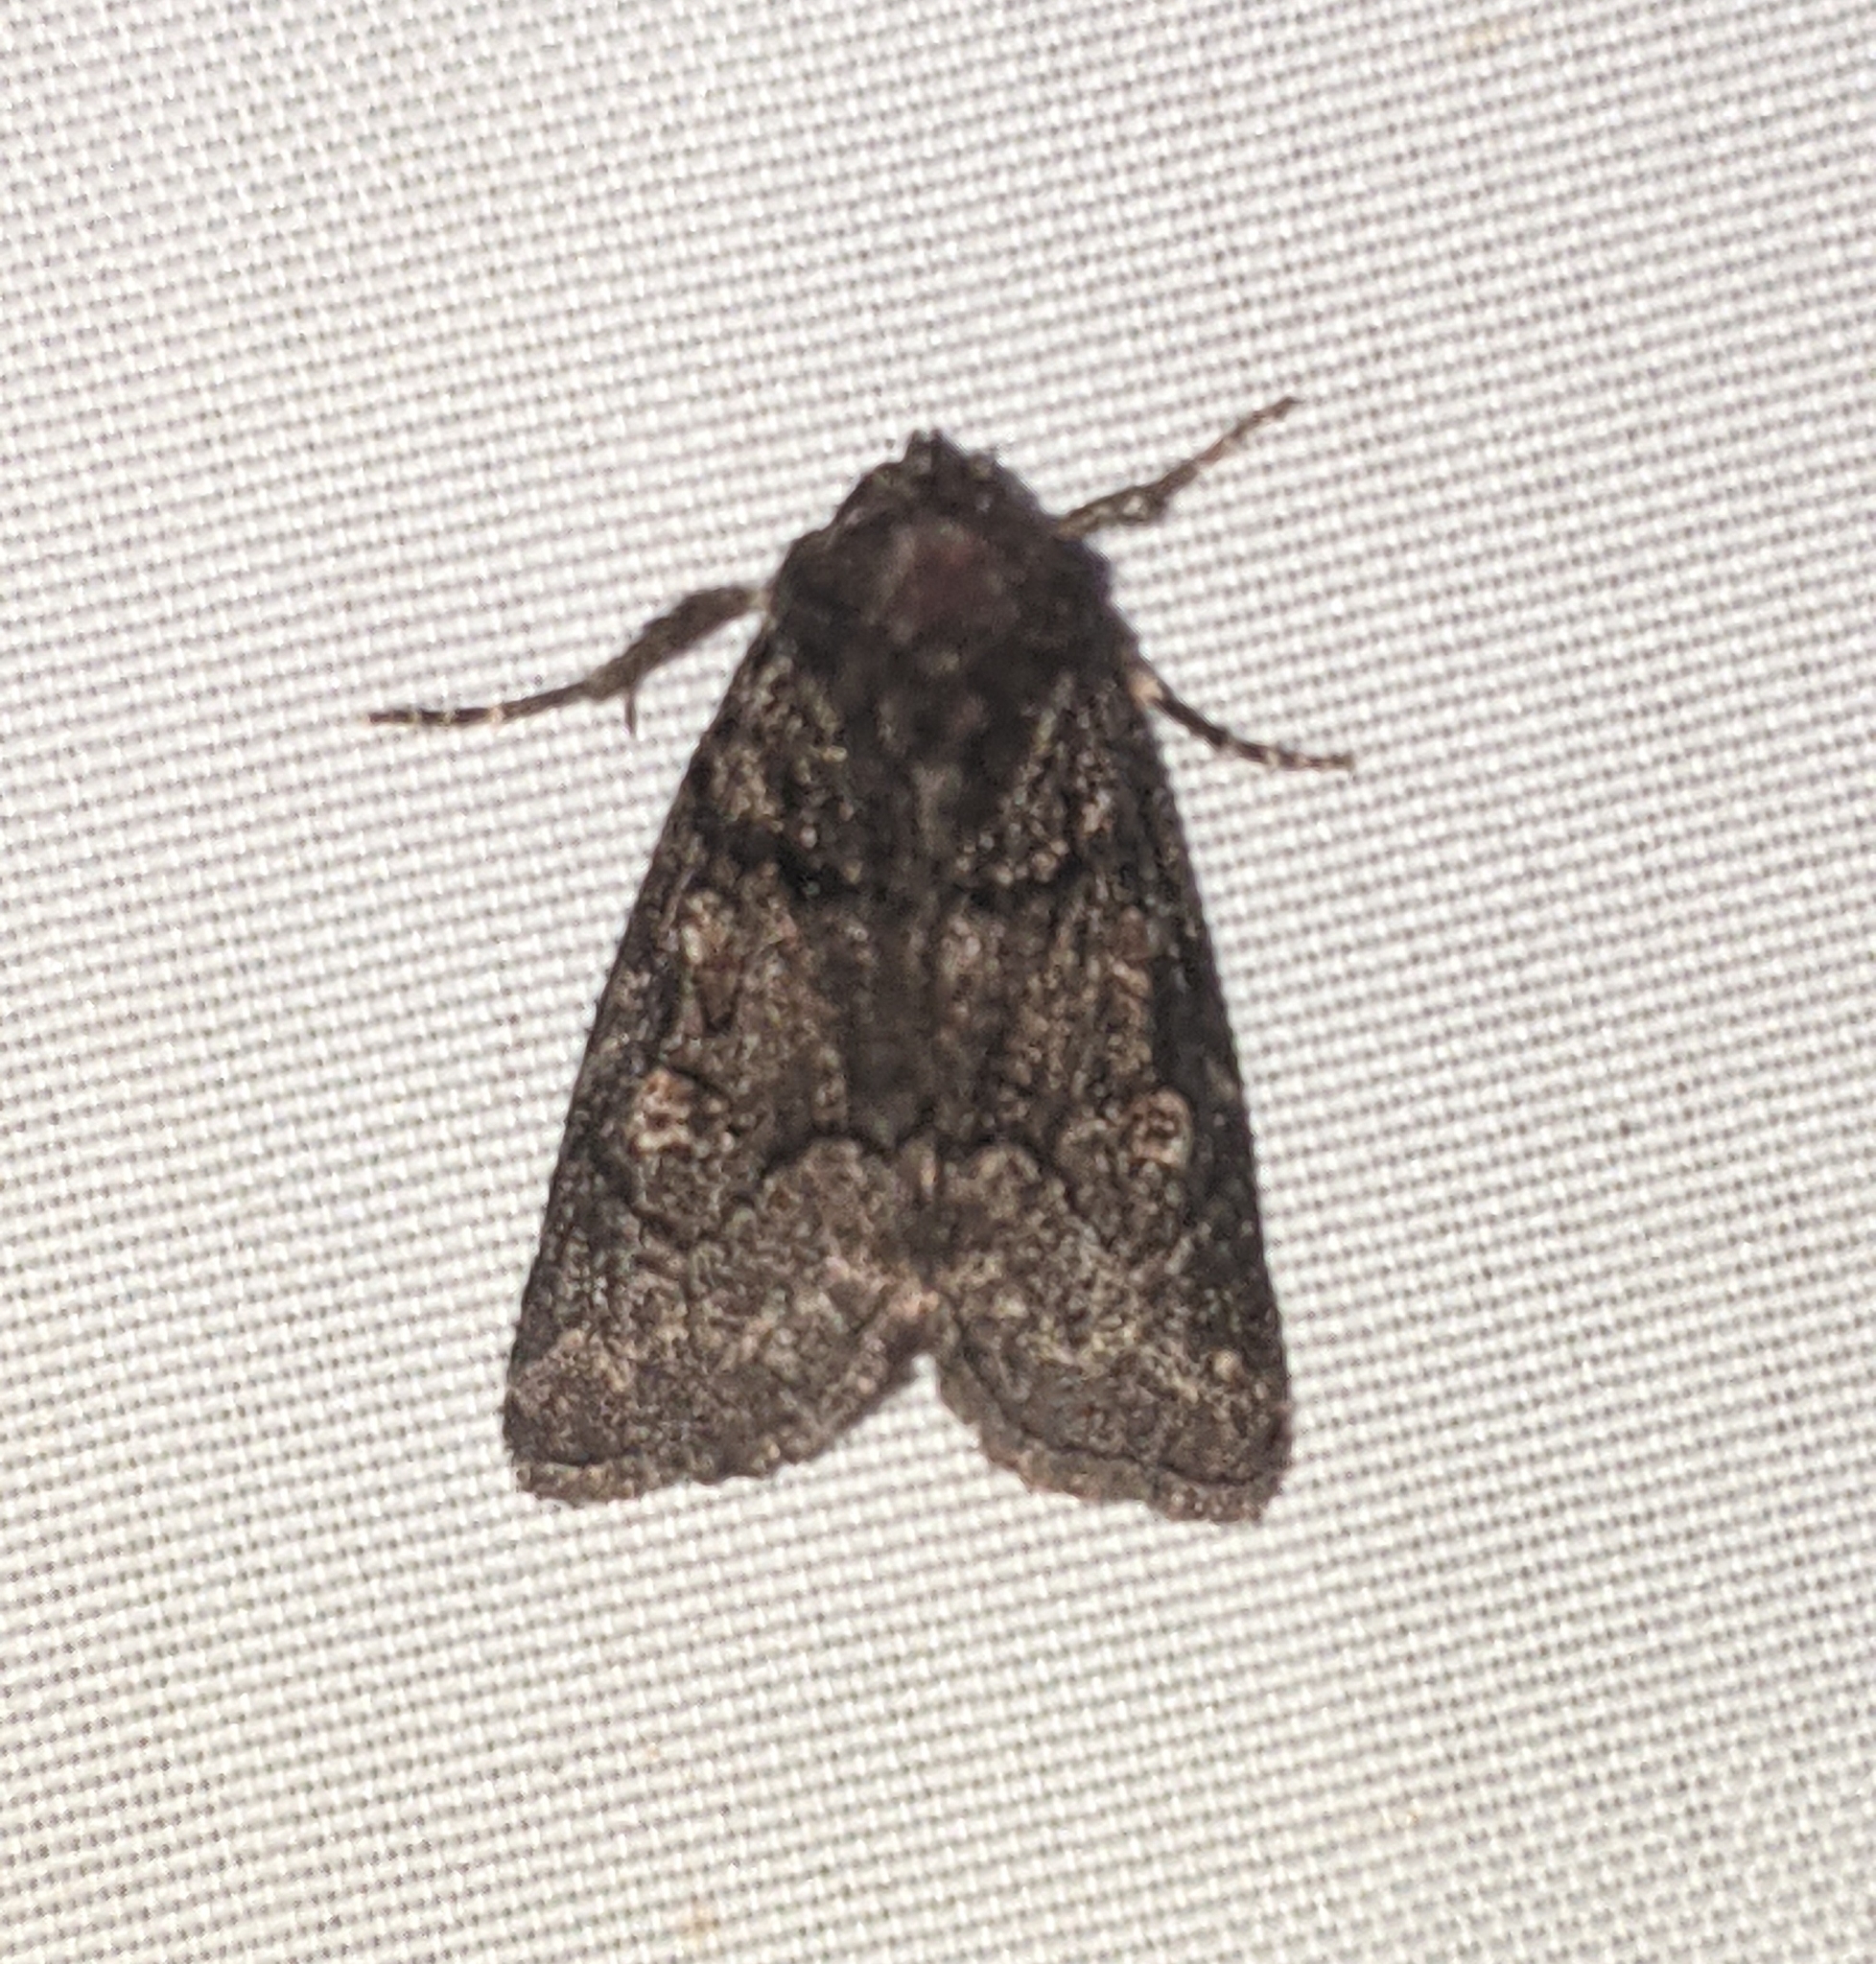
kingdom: Animalia
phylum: Arthropoda
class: Insecta
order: Lepidoptera
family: Noctuidae
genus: Cosmia
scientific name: Cosmia praeacuta
